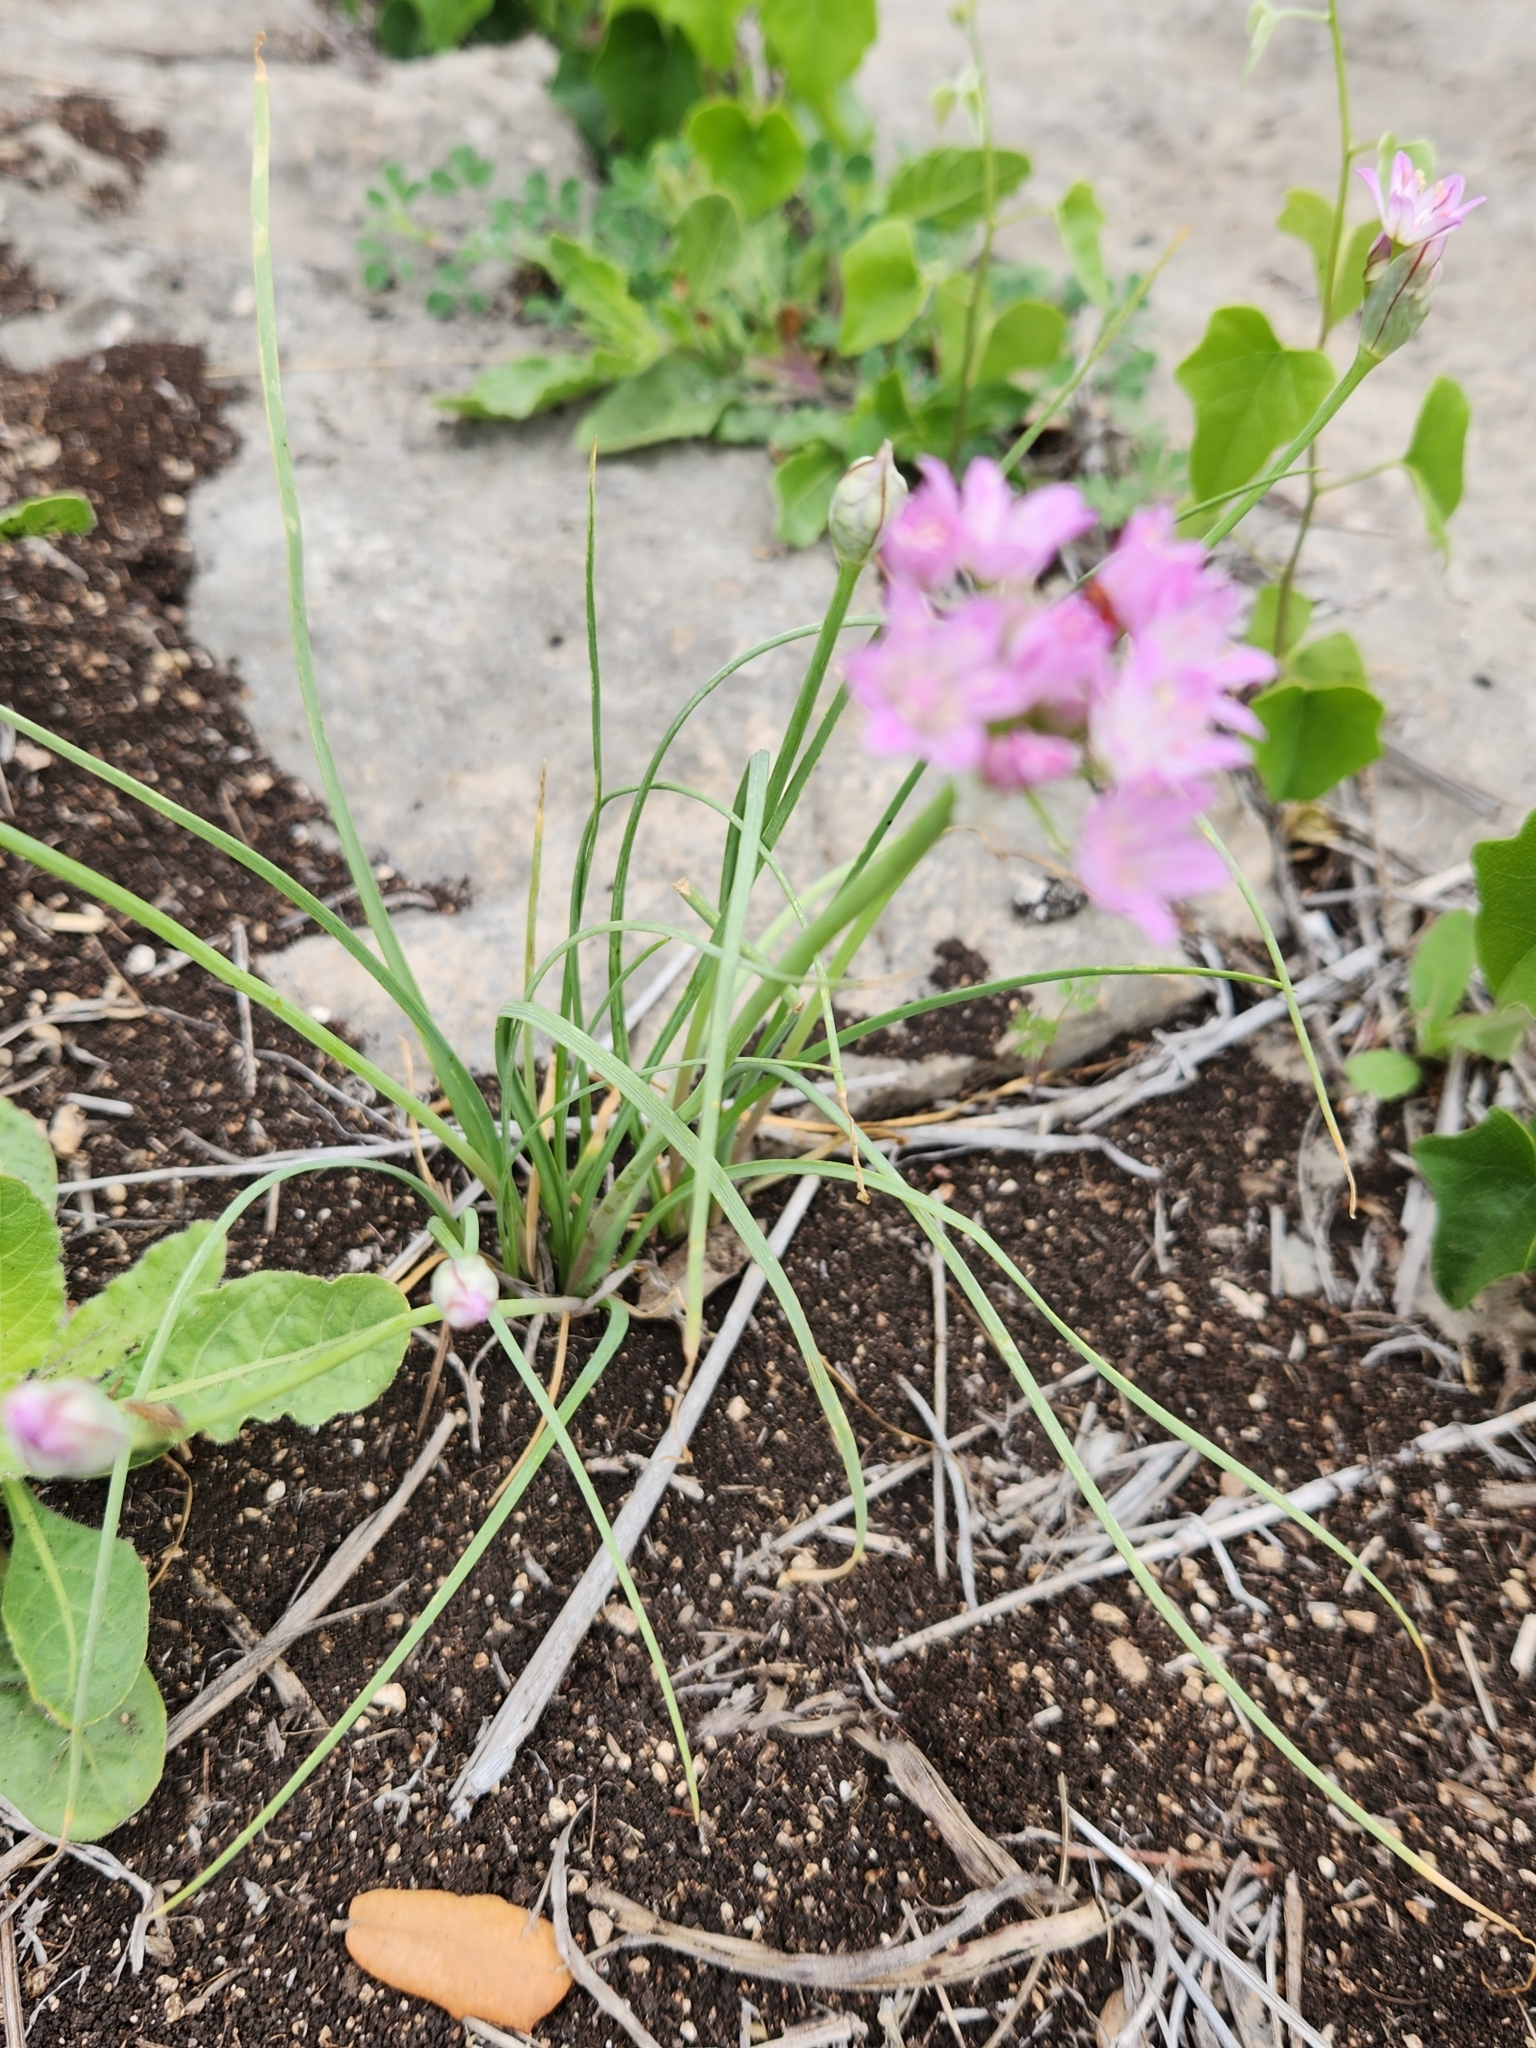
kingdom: Plantae
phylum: Tracheophyta
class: Liliopsida
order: Asparagales
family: Amaryllidaceae
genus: Allium
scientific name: Allium drummondii
